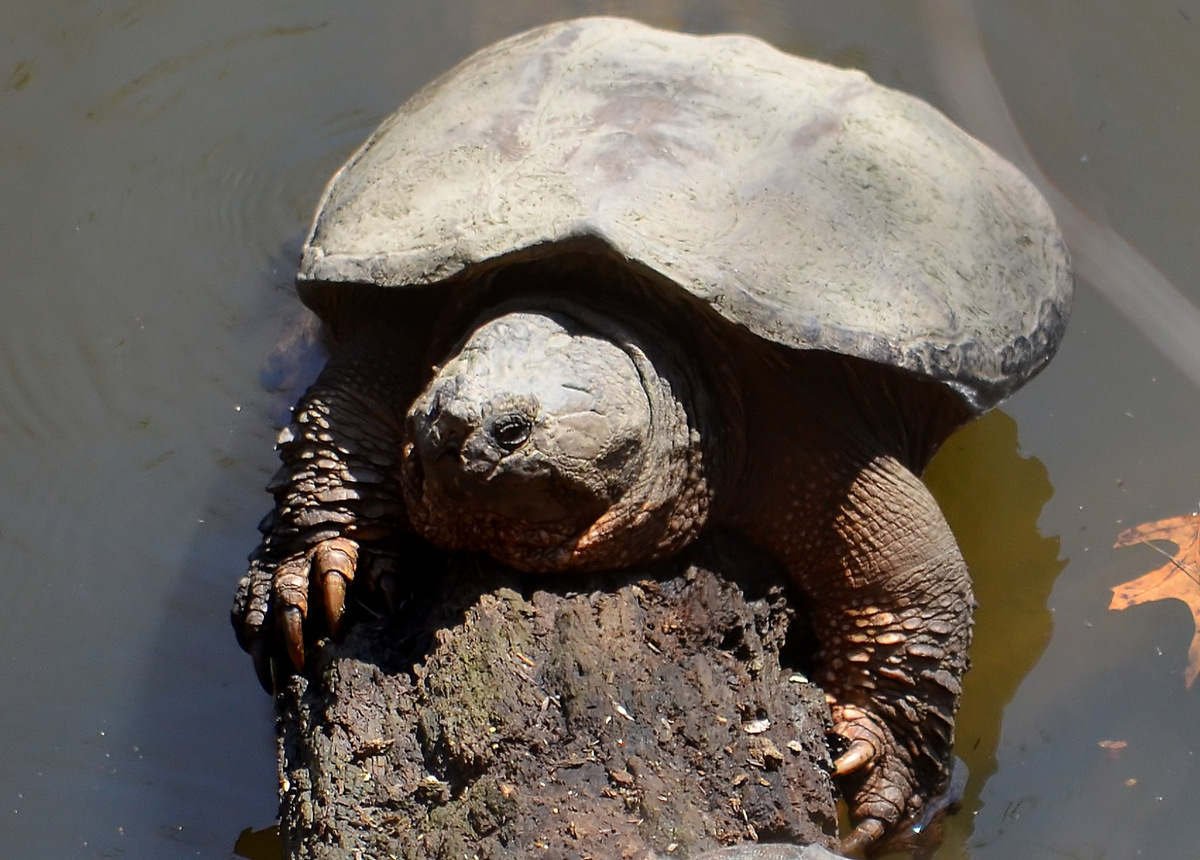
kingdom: Animalia
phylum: Chordata
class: Testudines
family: Chelydridae
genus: Chelydra
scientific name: Chelydra serpentina
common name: Common snapping turtle
